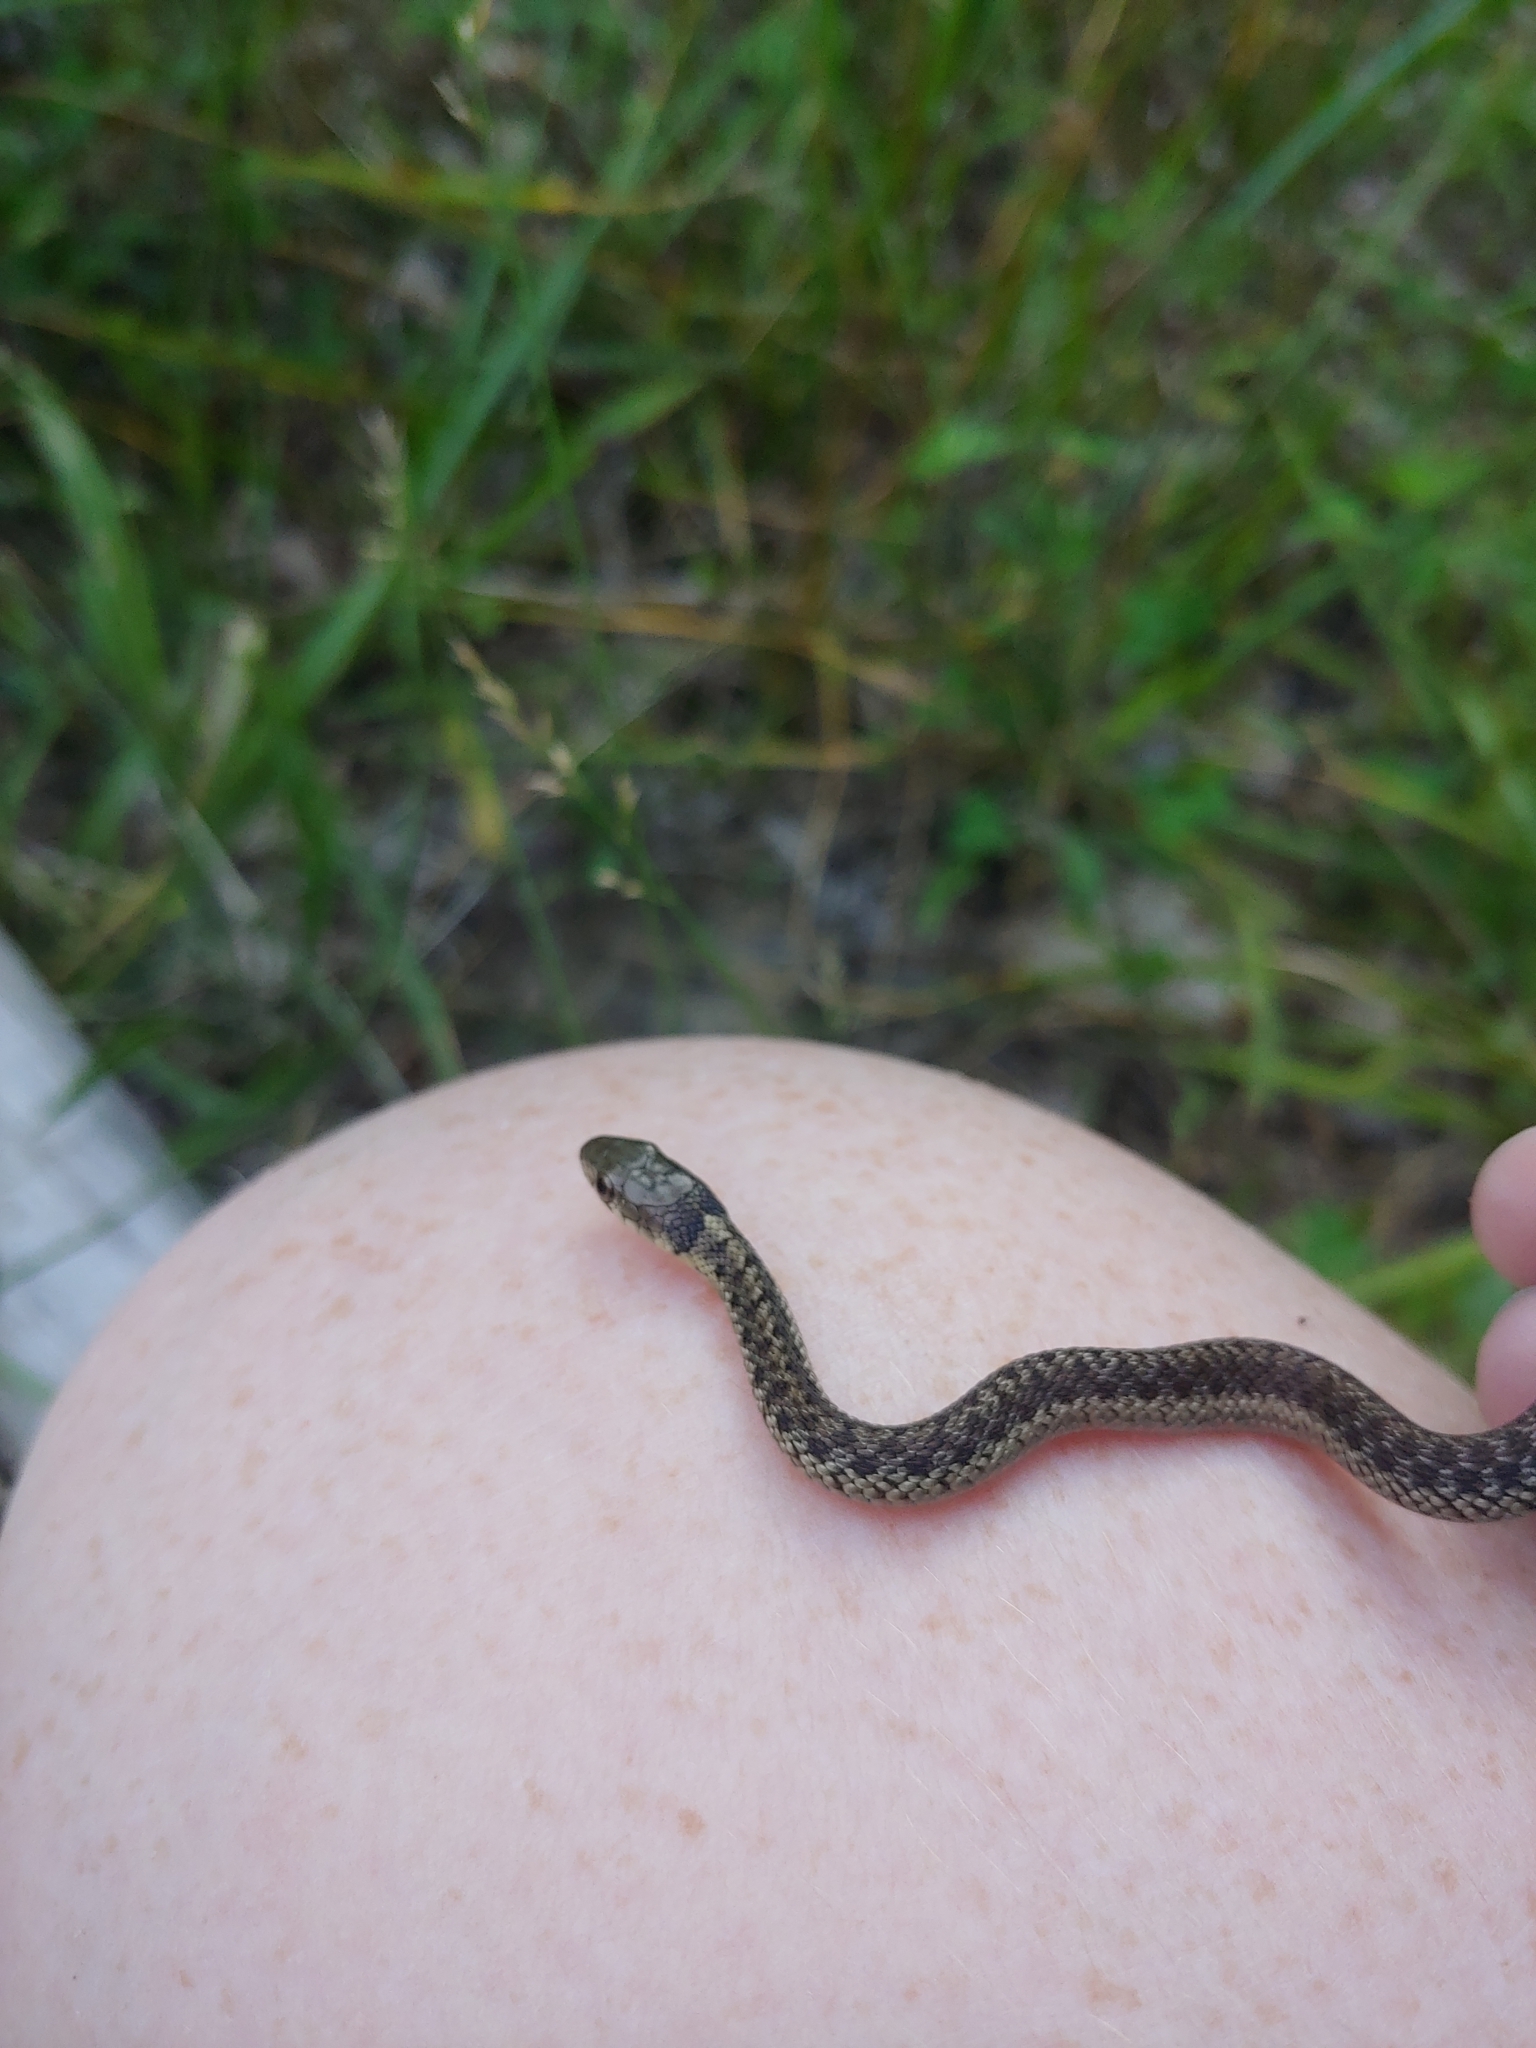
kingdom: Animalia
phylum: Chordata
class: Squamata
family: Colubridae
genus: Thamnophis
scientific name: Thamnophis sirtalis
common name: Common garter snake
